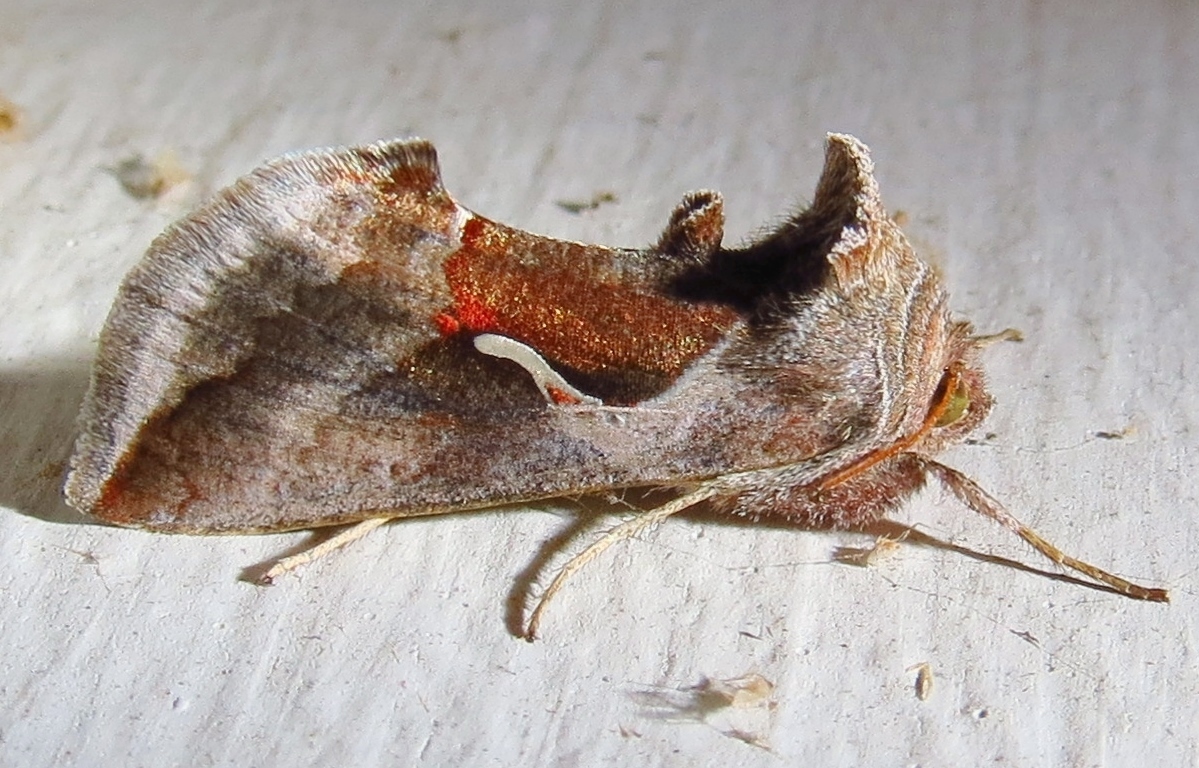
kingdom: Animalia
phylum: Arthropoda
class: Insecta
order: Lepidoptera
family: Noctuidae
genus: Anagrapha
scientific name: Anagrapha falcifera
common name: Celery looper
